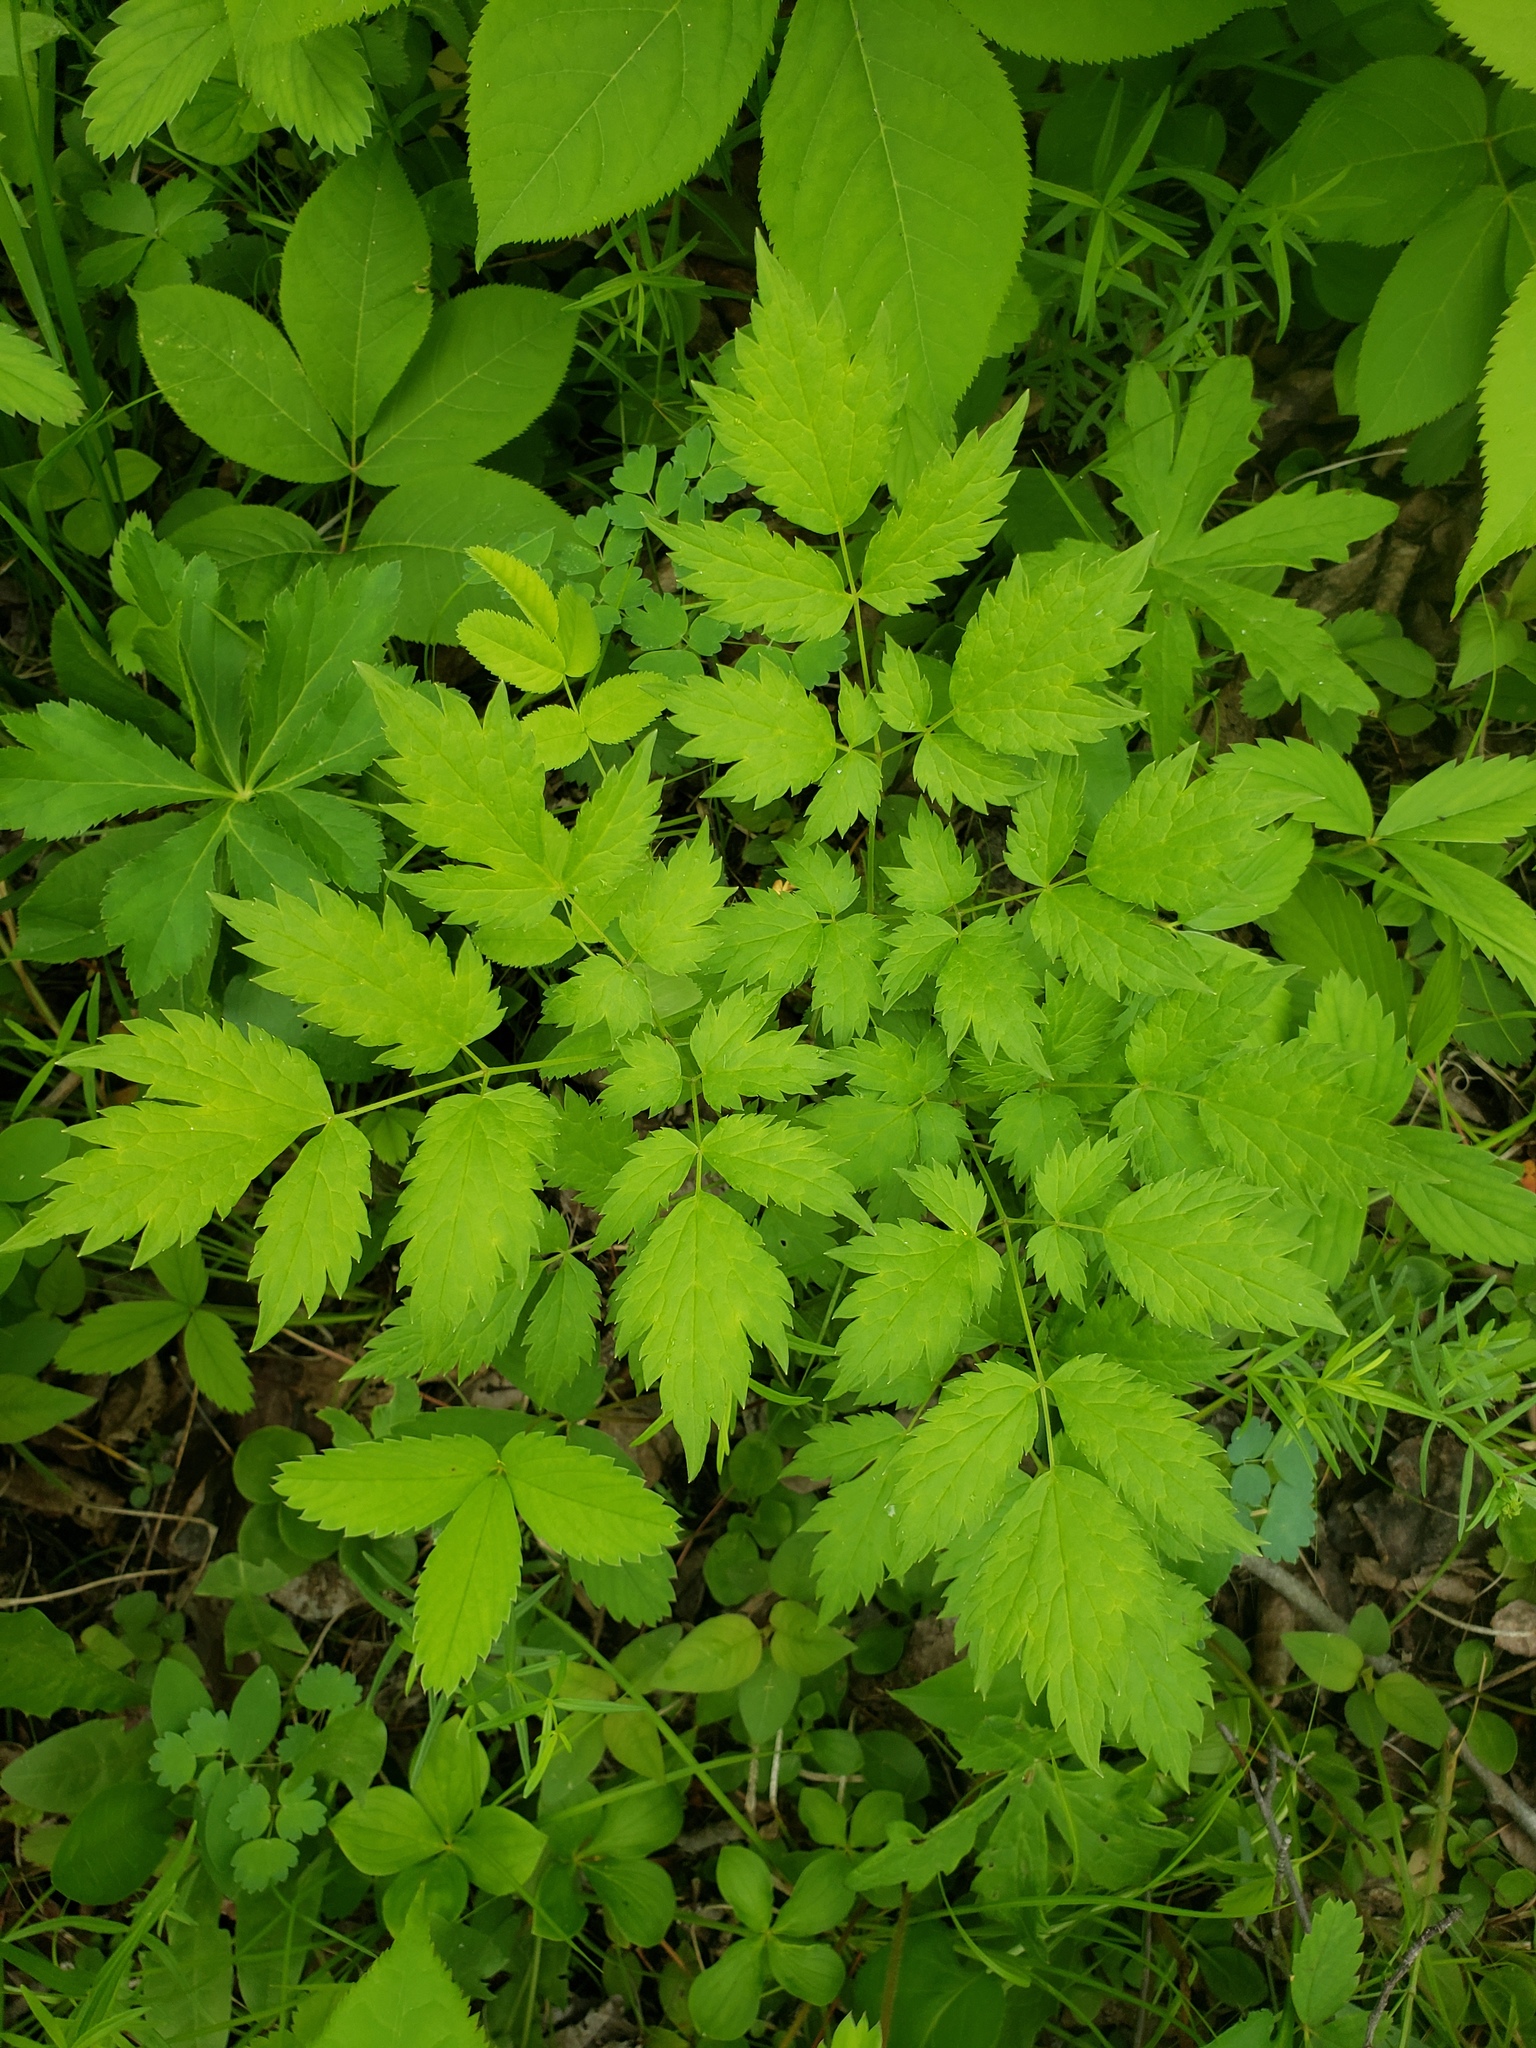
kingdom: Plantae
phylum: Tracheophyta
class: Magnoliopsida
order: Ranunculales
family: Ranunculaceae
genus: Actaea
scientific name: Actaea rubra
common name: Red baneberry
